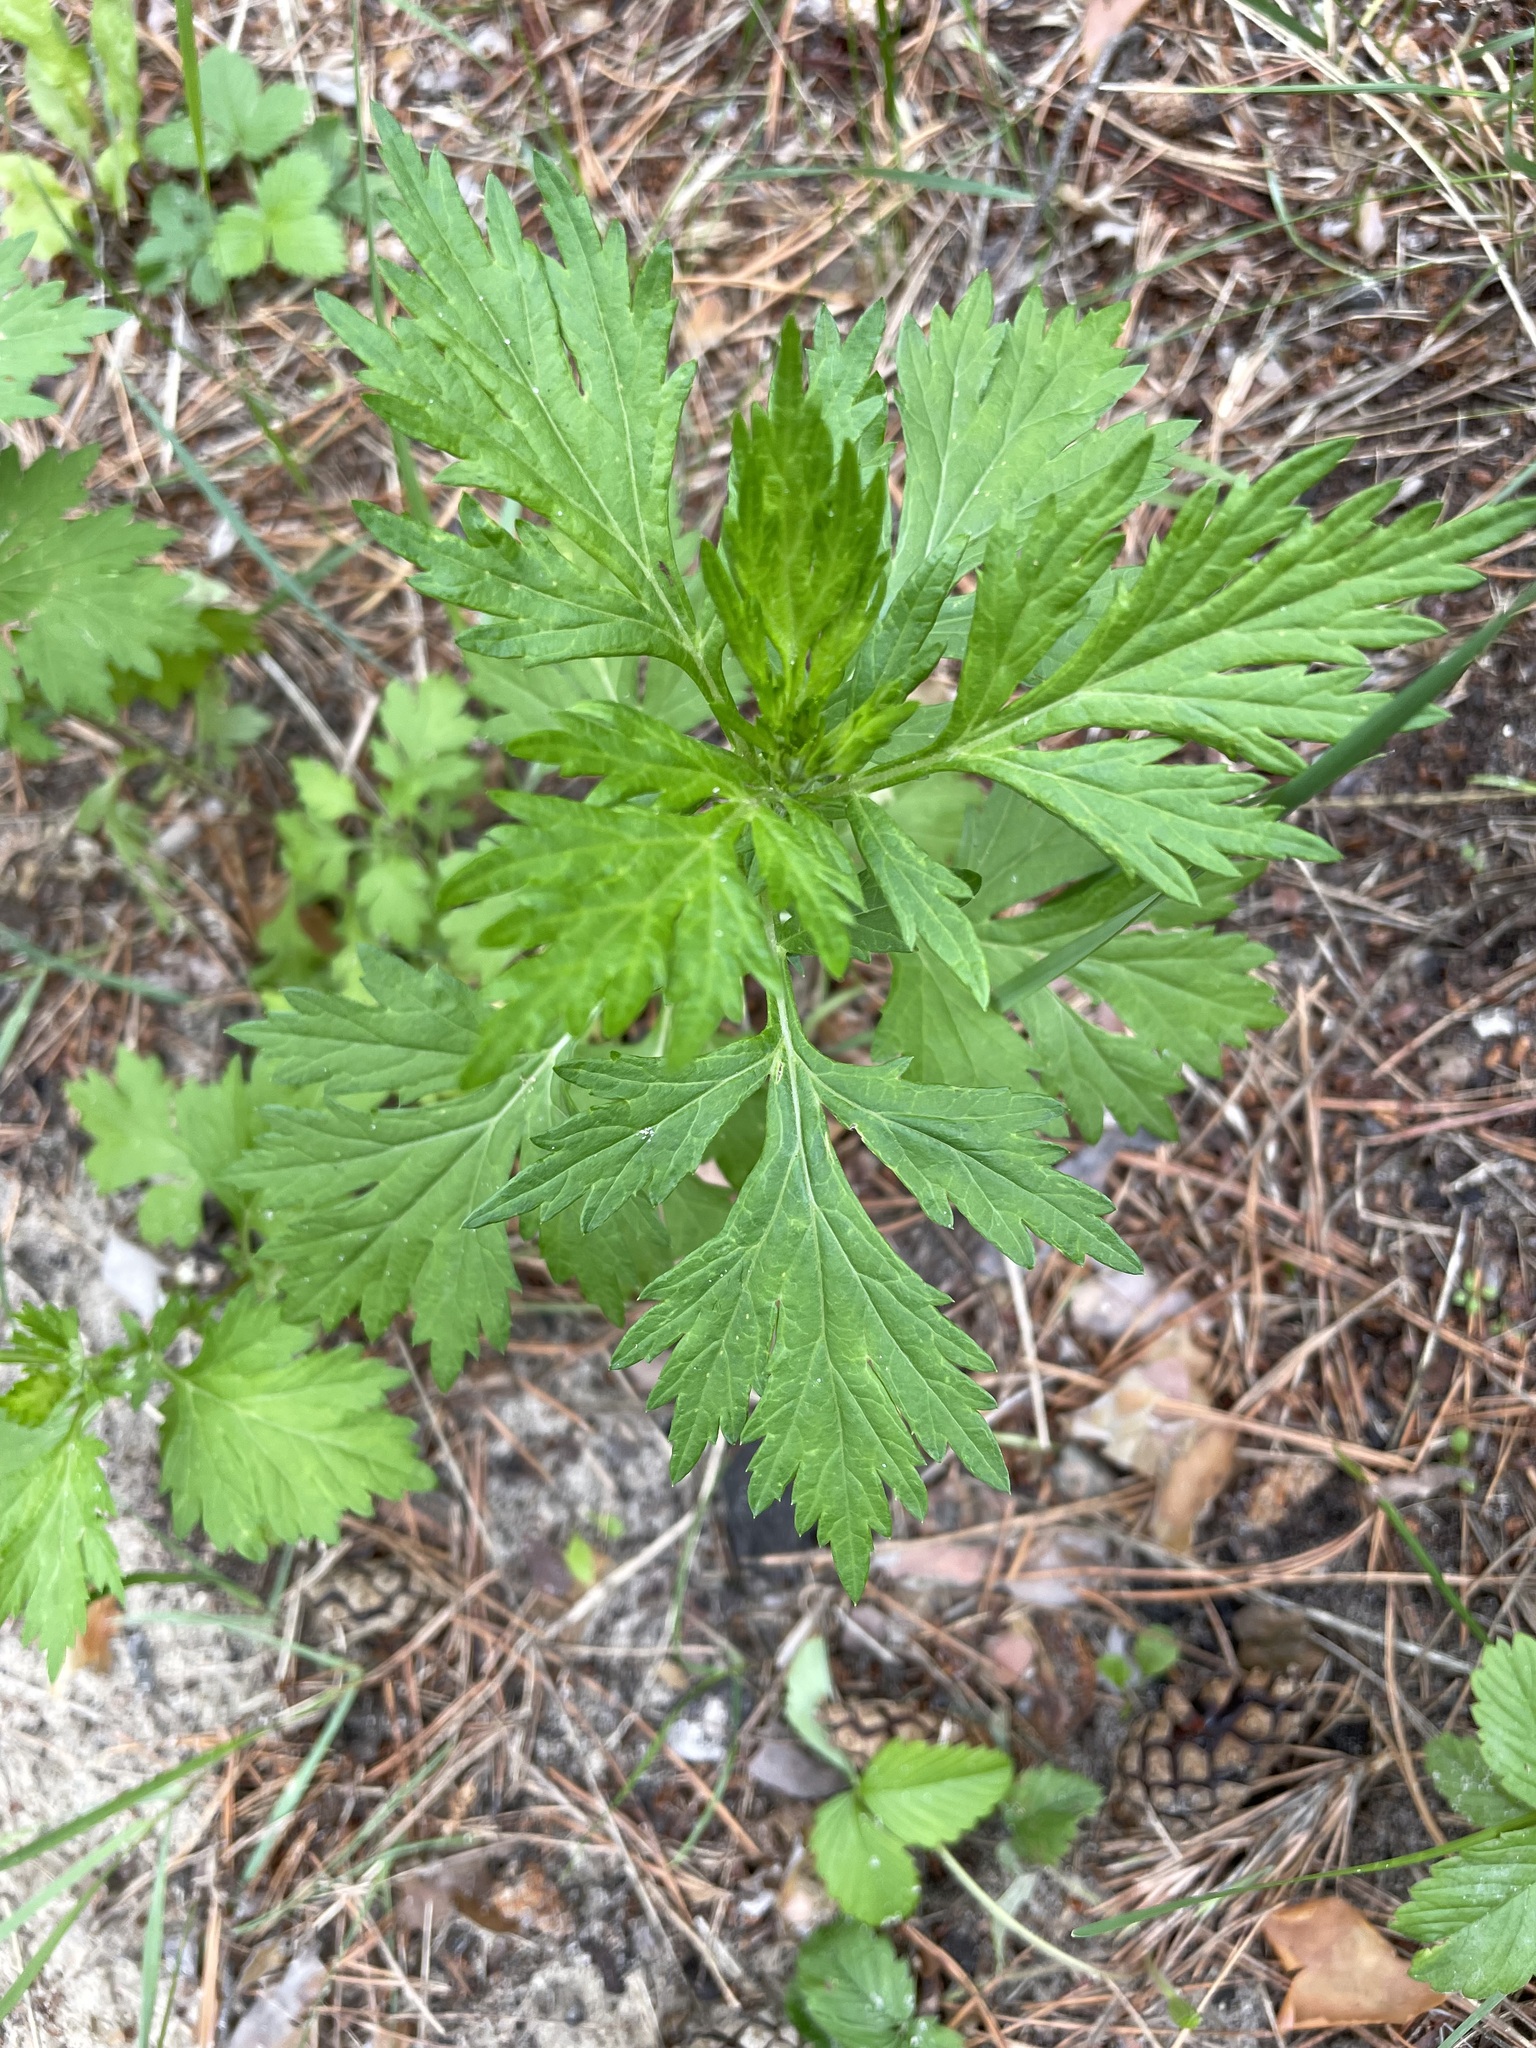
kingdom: Plantae
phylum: Tracheophyta
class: Magnoliopsida
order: Asterales
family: Asteraceae
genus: Artemisia
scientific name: Artemisia vulgaris
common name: Mugwort
